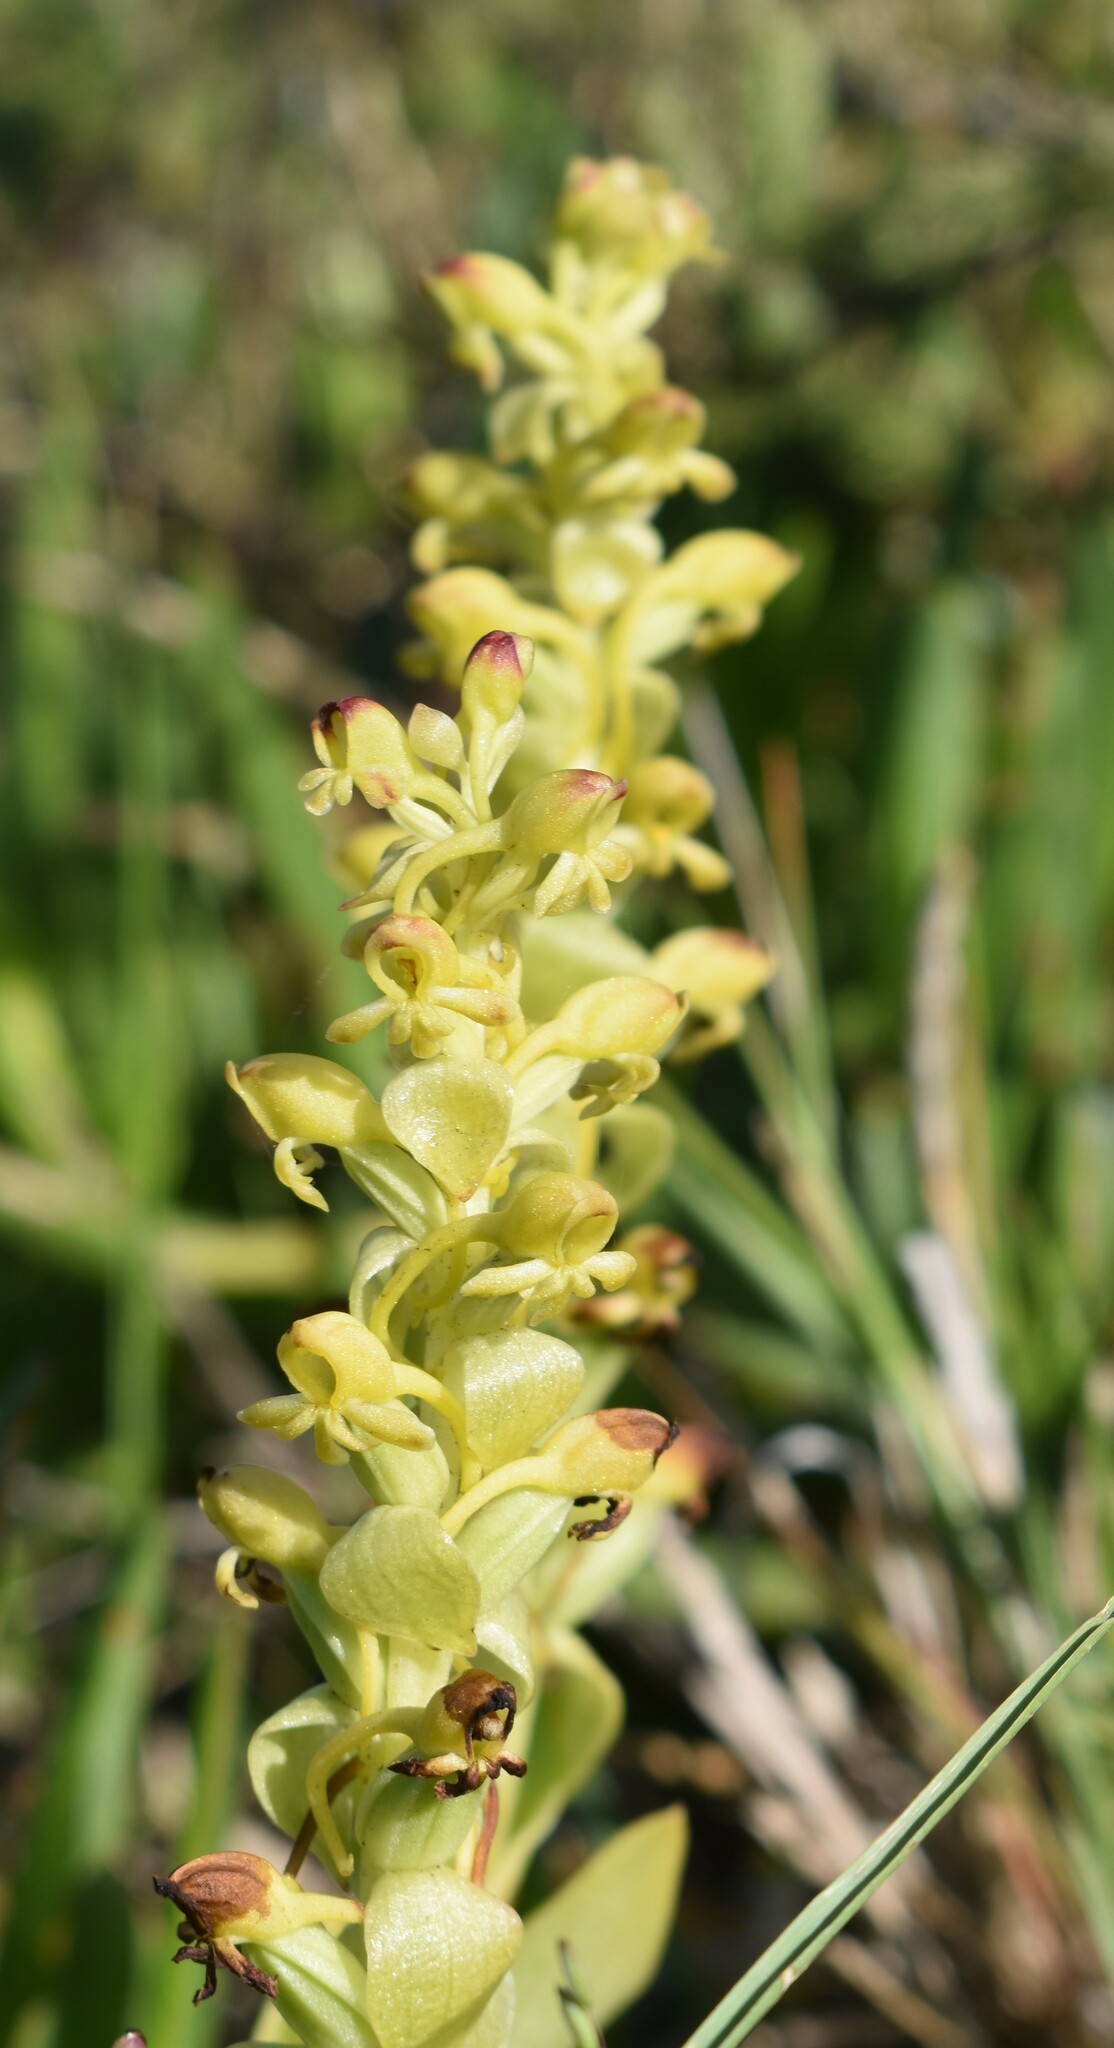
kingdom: Plantae
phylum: Tracheophyta
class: Liliopsida
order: Asparagales
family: Orchidaceae
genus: Satyrium
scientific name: Satyrium odorum
